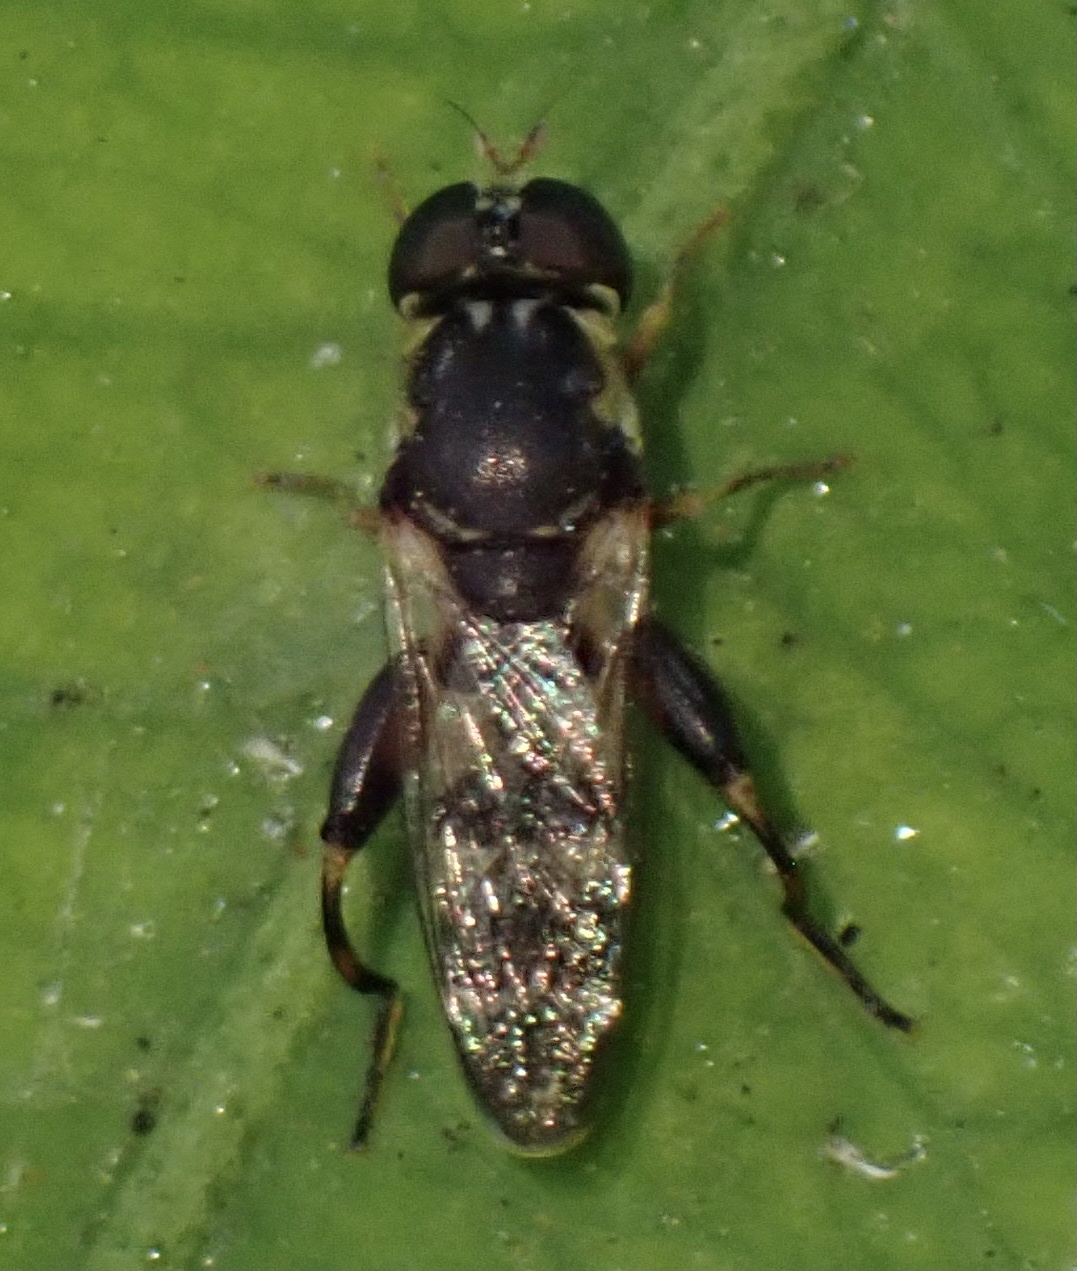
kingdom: Animalia
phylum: Arthropoda
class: Insecta
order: Diptera
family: Syrphidae
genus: Syritta
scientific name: Syritta pipiens
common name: Hover fly
